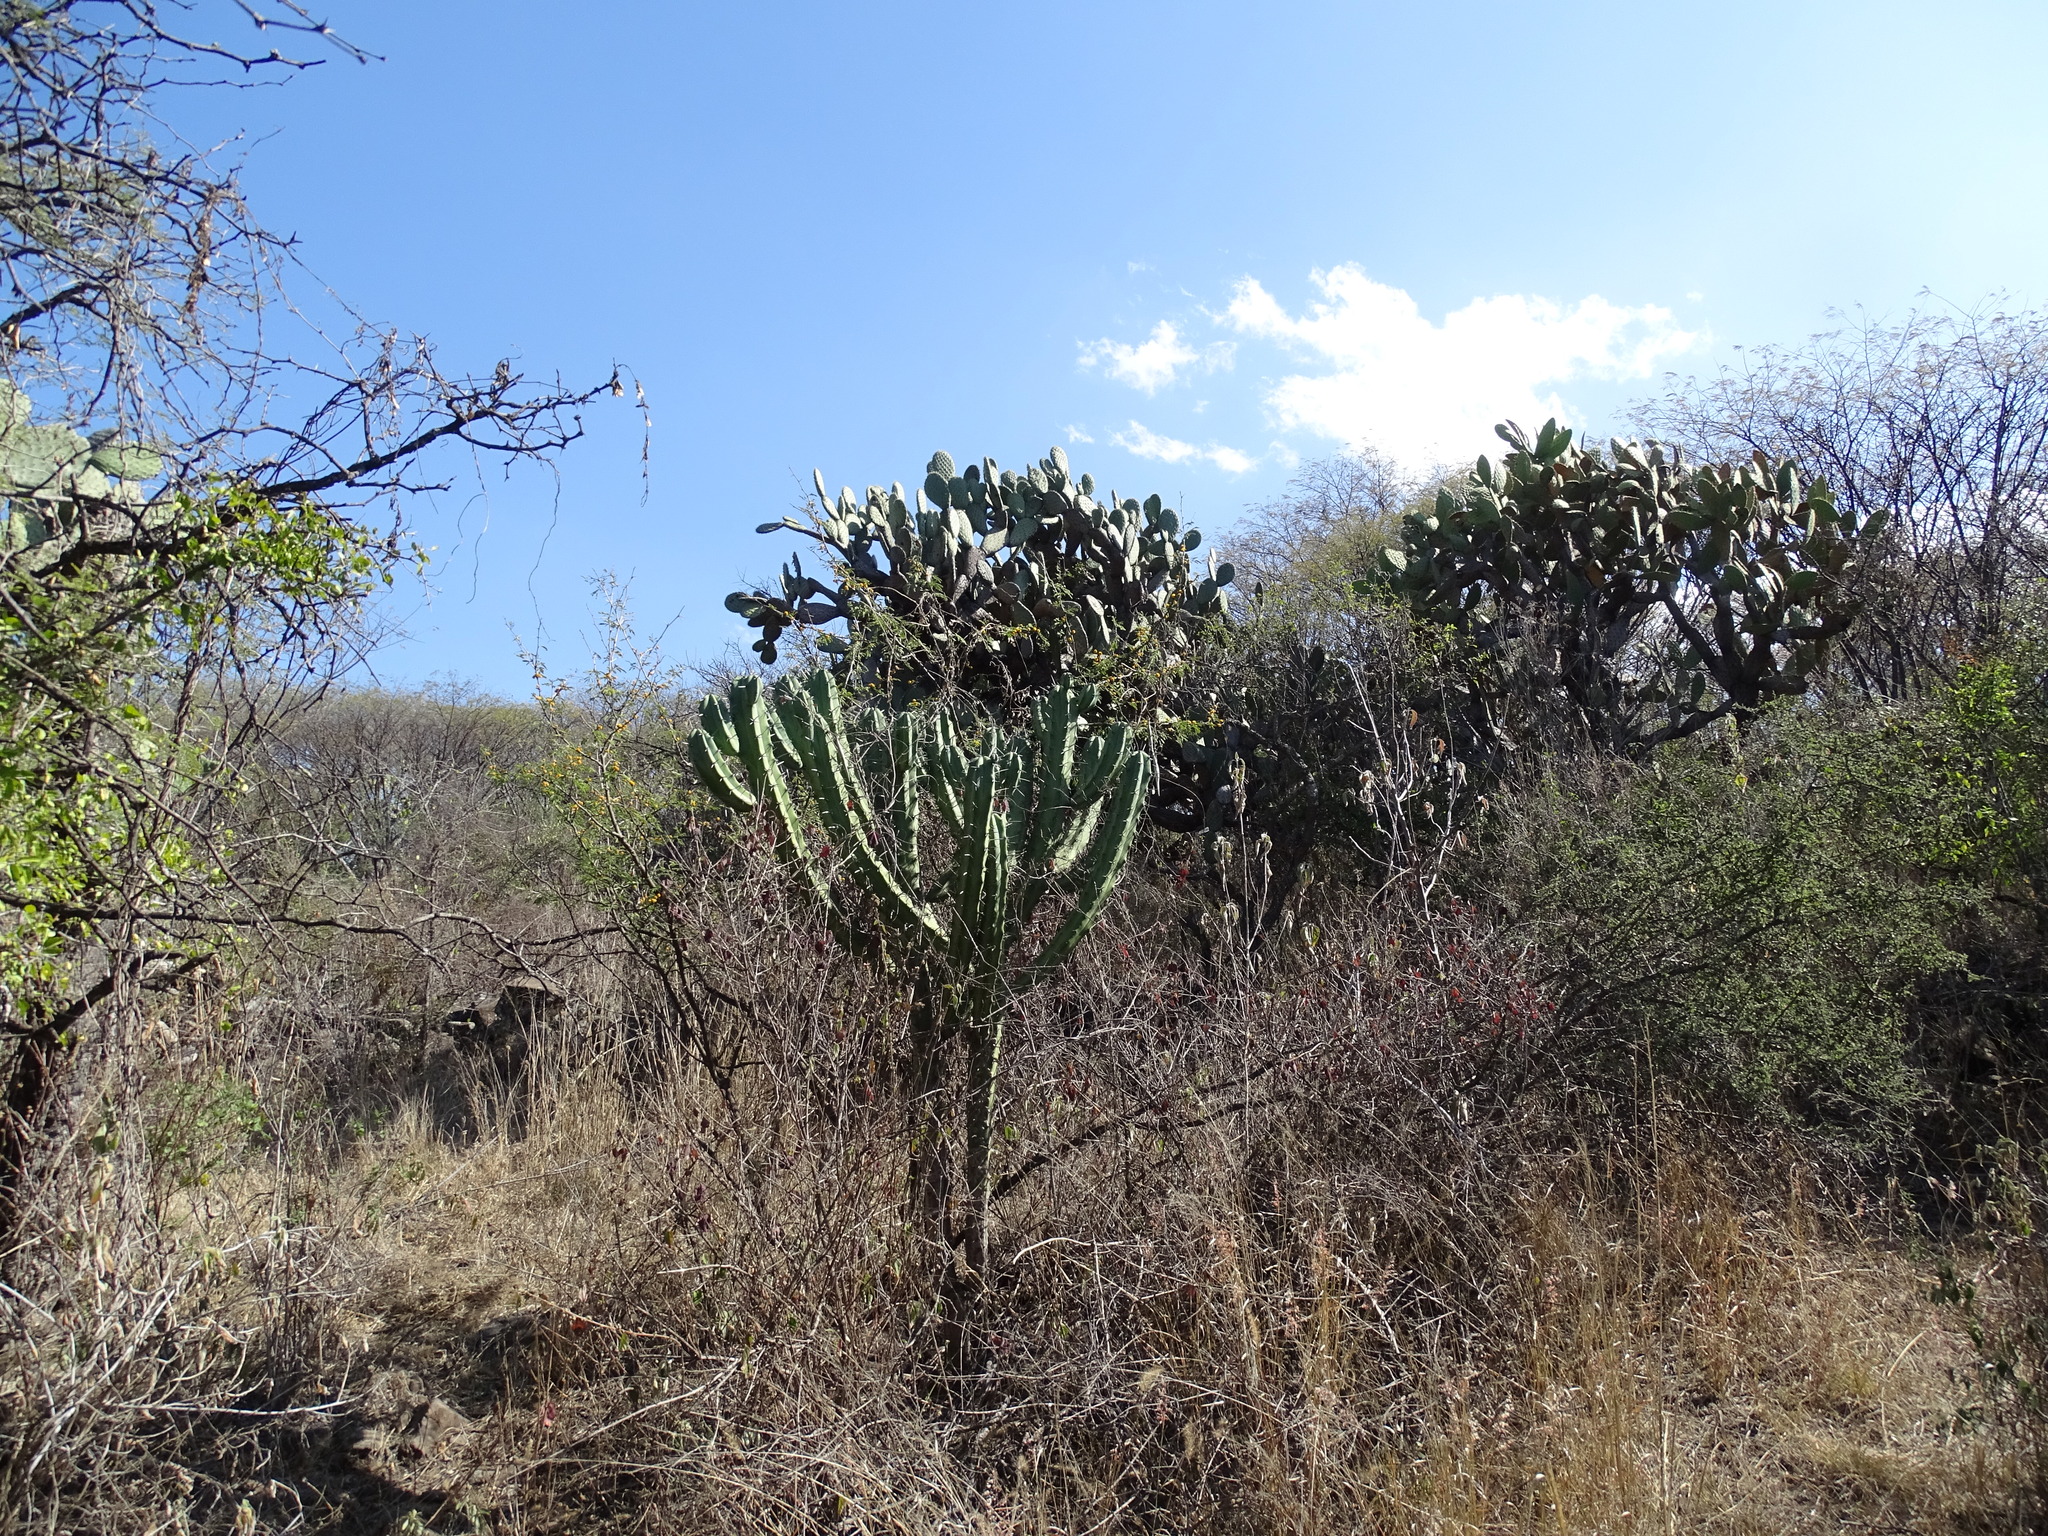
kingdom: Plantae
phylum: Tracheophyta
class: Magnoliopsida
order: Caryophyllales
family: Cactaceae
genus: Myrtillocactus
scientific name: Myrtillocactus geometrizans
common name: Bilberry cactus
